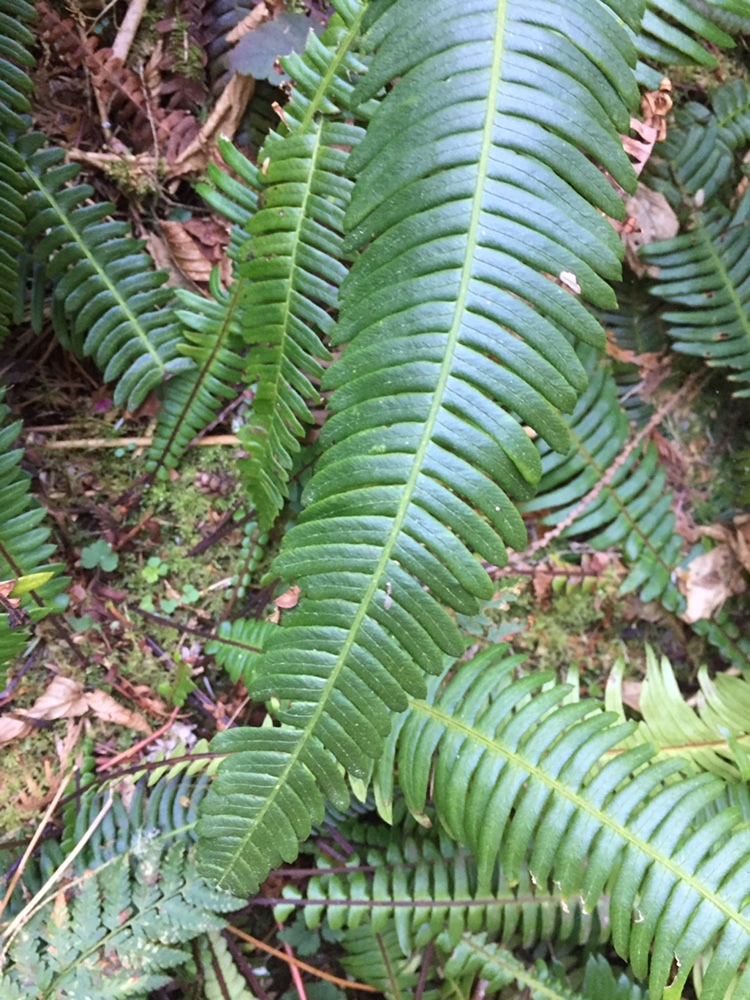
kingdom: Plantae
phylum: Tracheophyta
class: Polypodiopsida
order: Polypodiales
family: Blechnaceae
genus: Struthiopteris
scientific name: Struthiopteris spicant
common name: Deer fern
